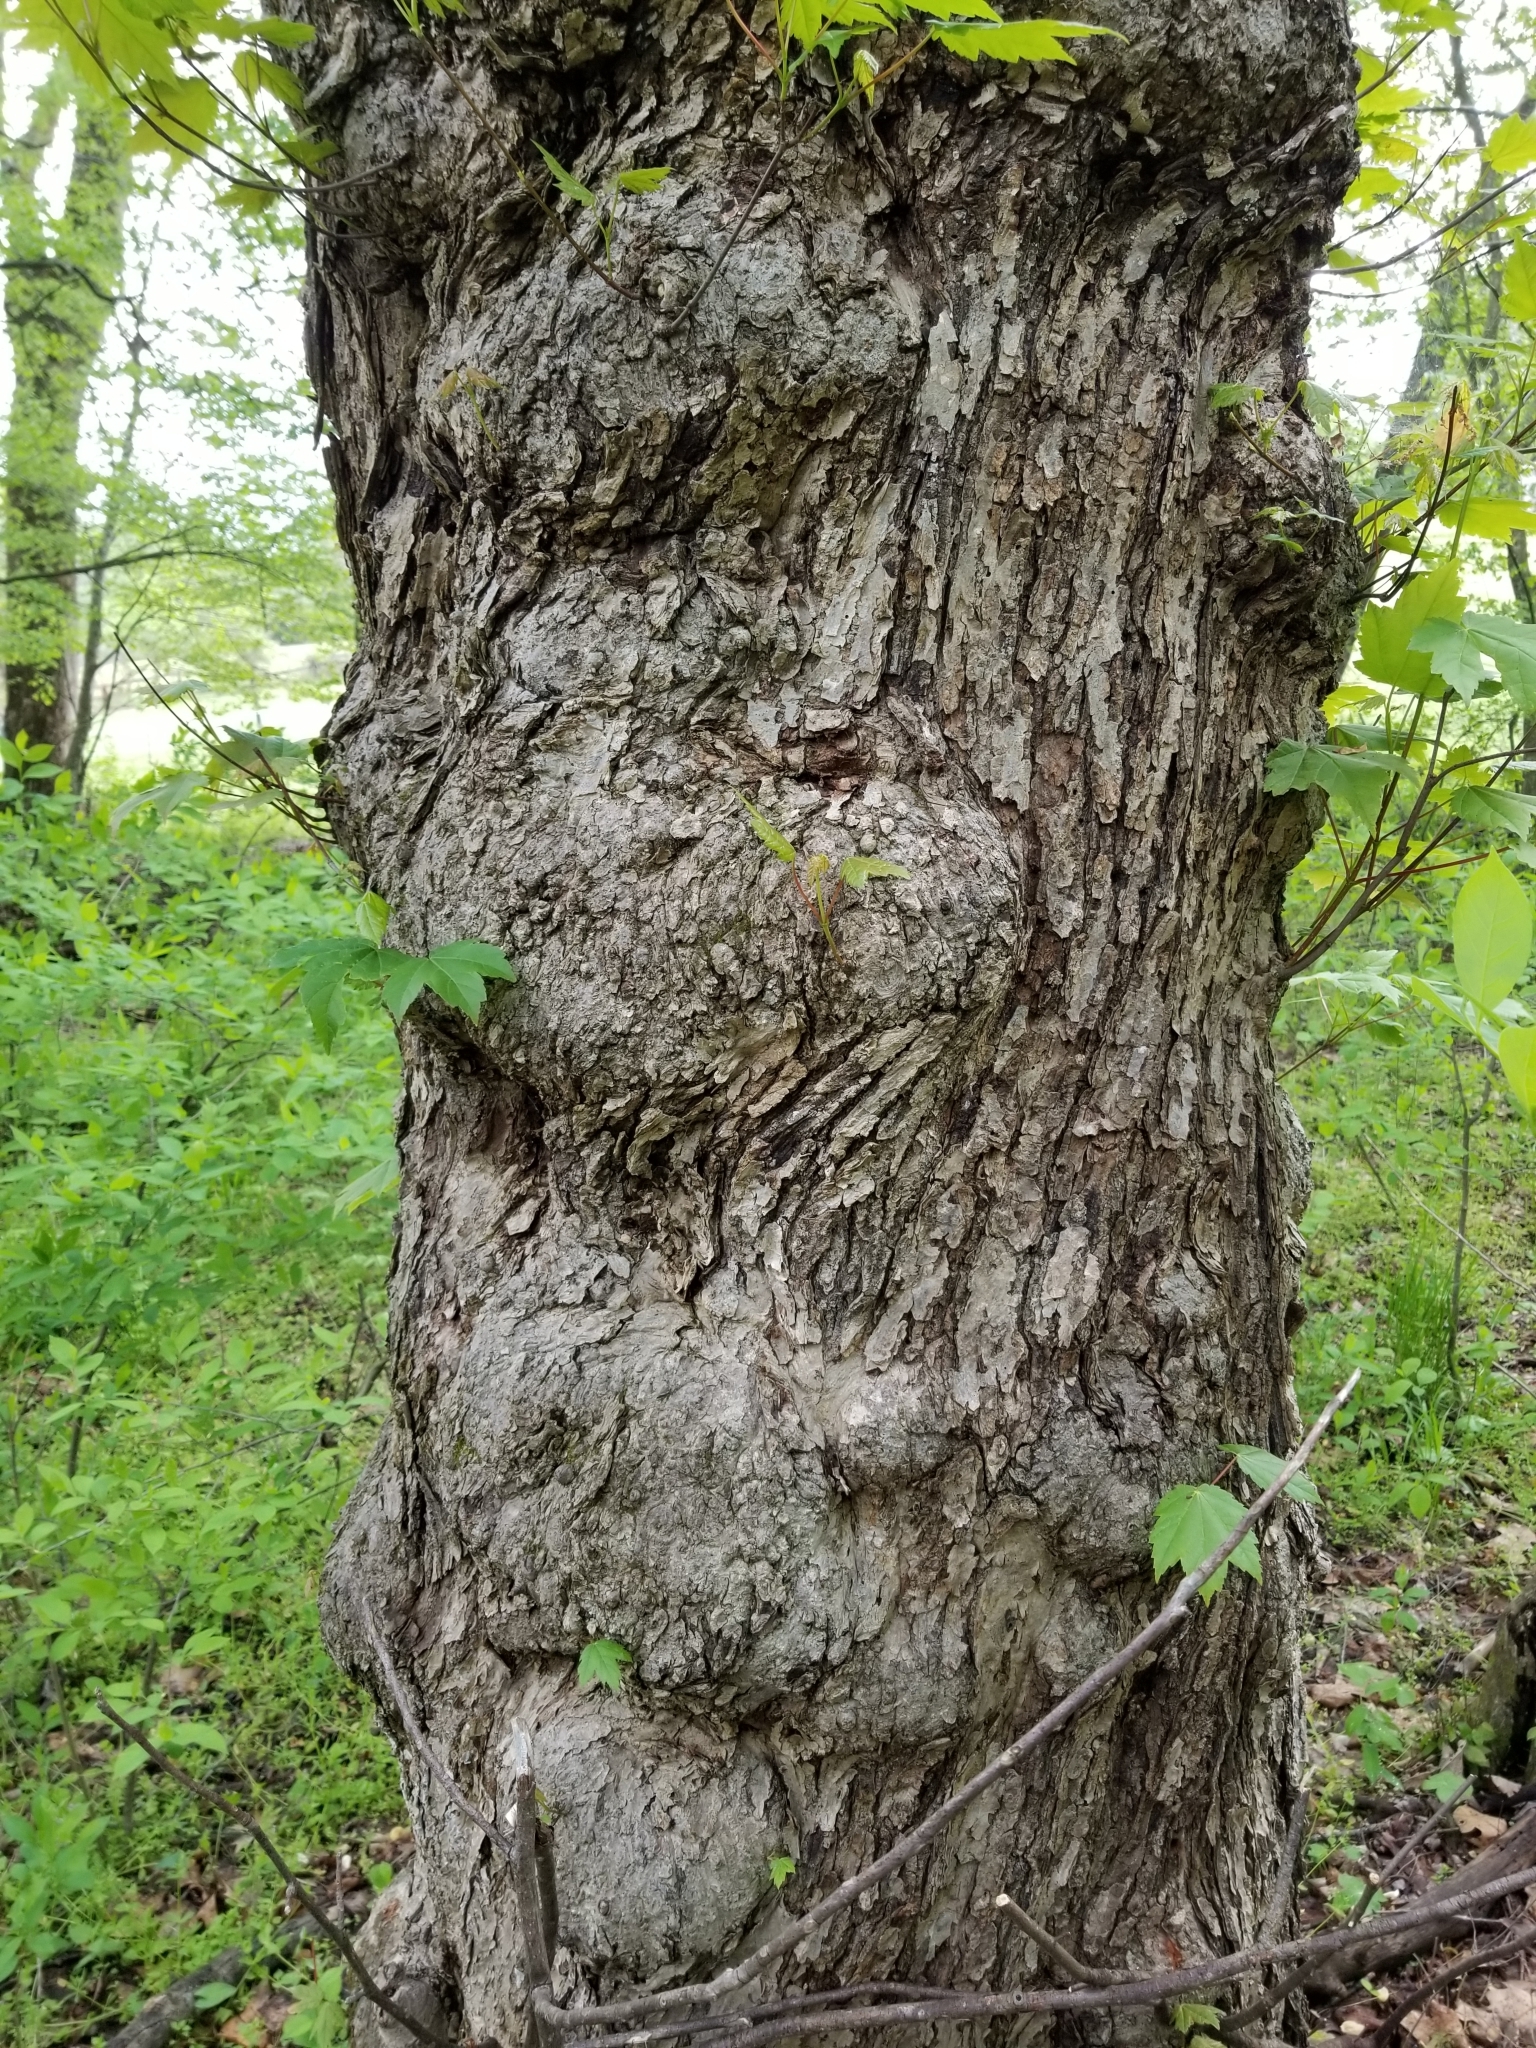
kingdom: Plantae
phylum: Tracheophyta
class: Magnoliopsida
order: Sapindales
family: Sapindaceae
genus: Acer
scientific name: Acer rubrum
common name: Red maple
